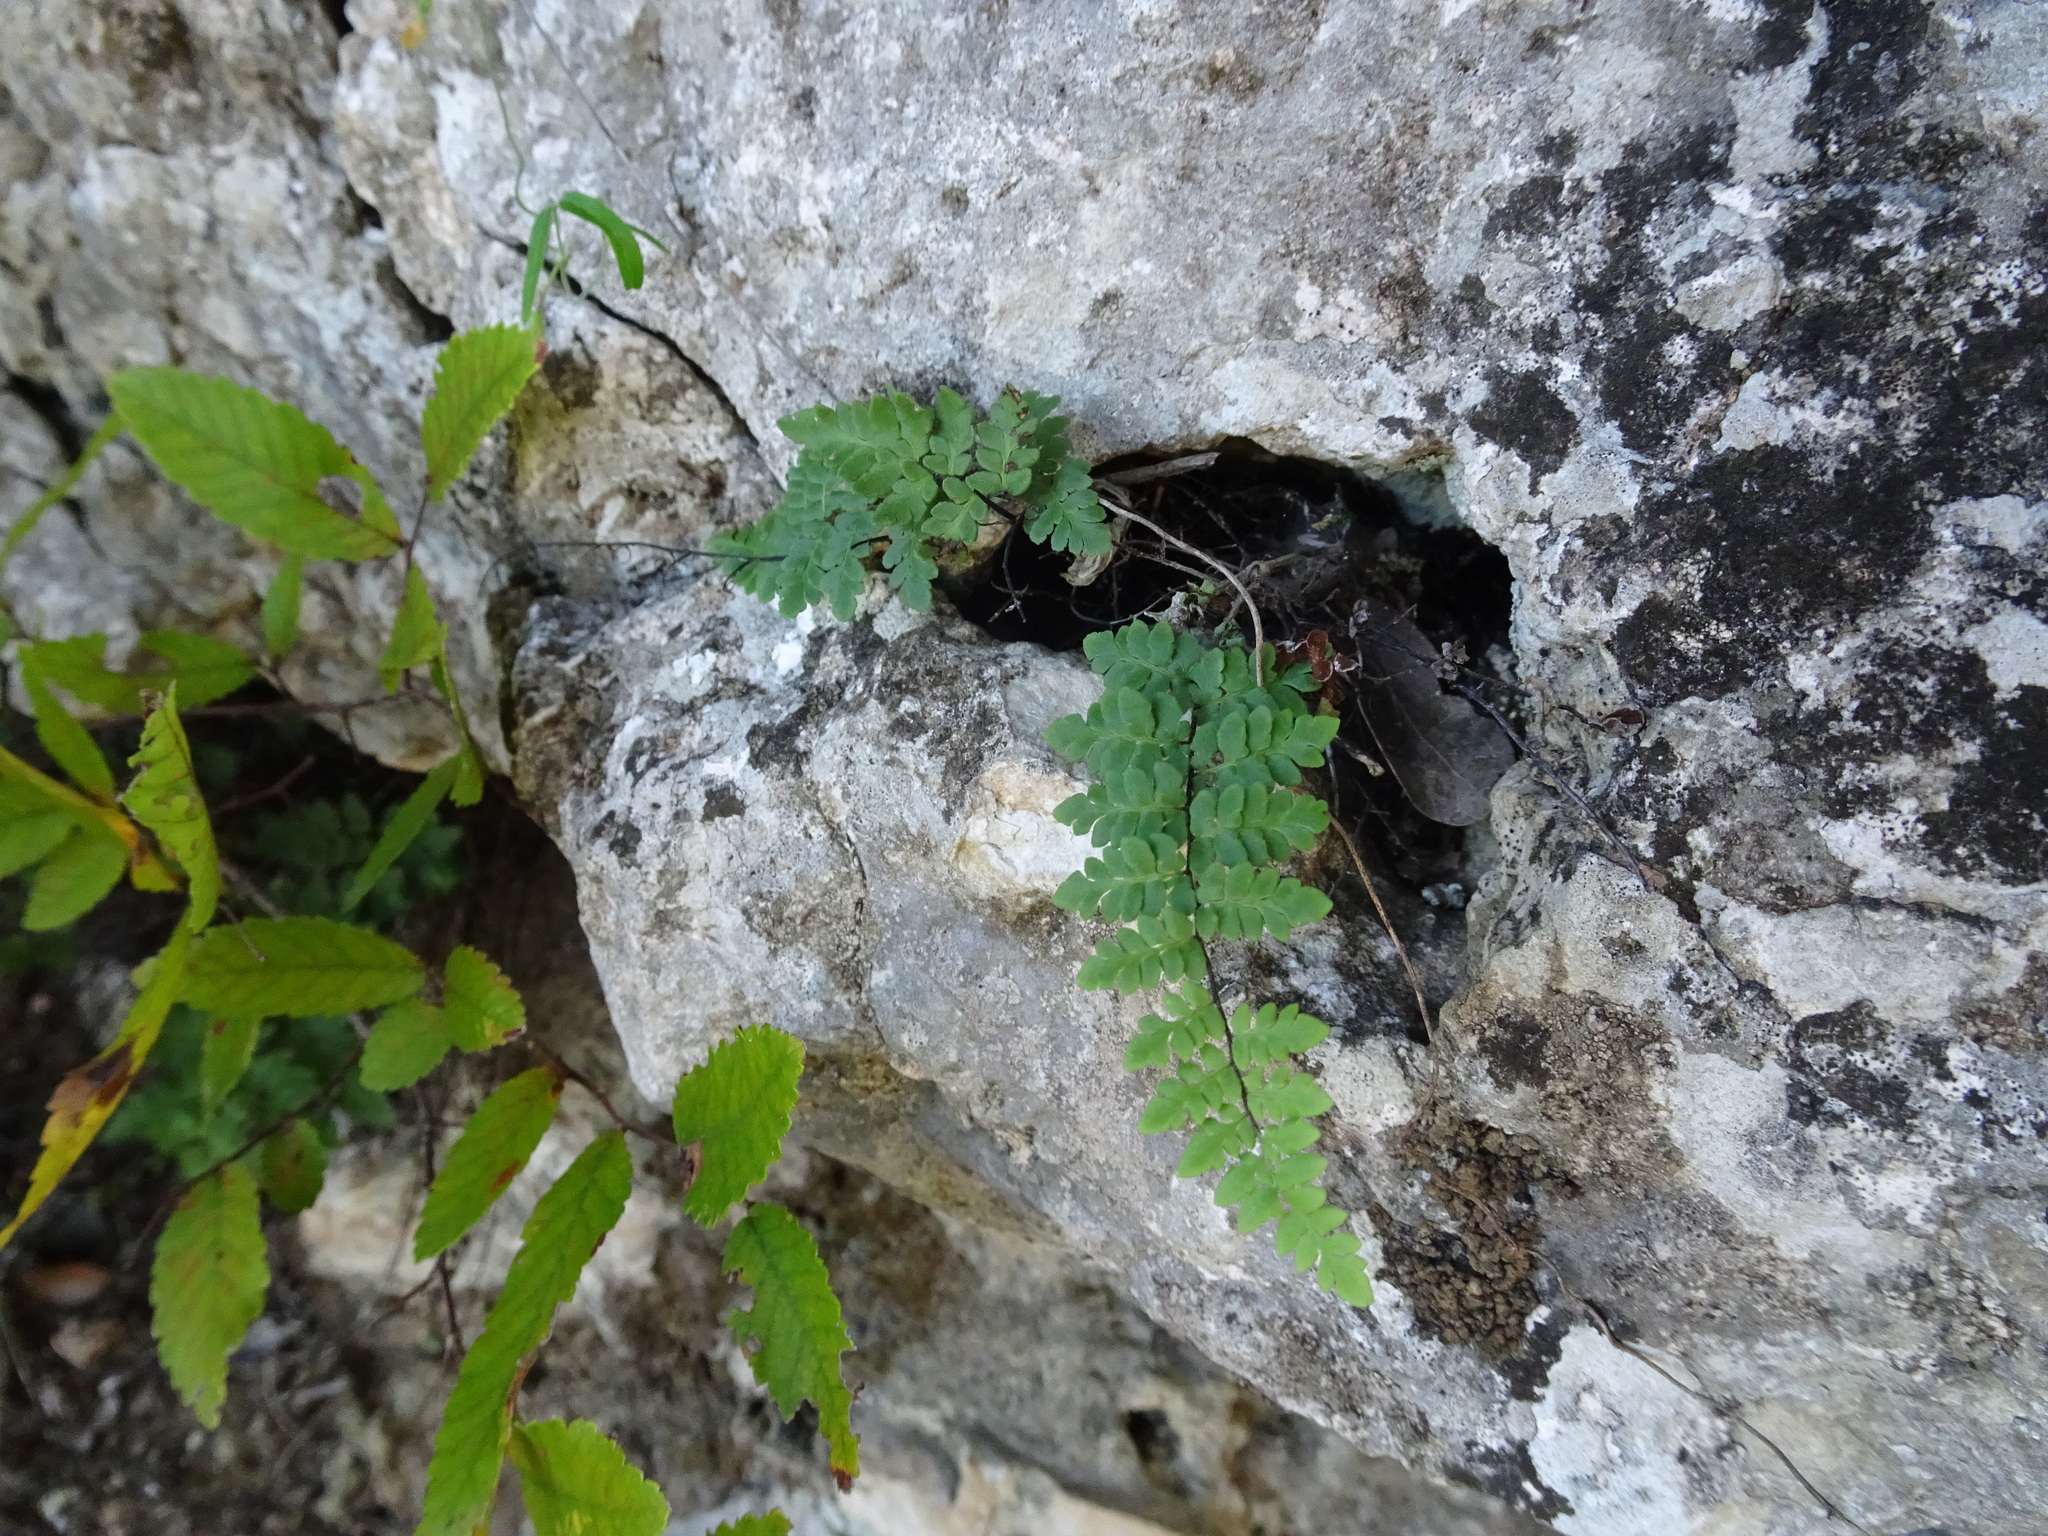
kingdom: Plantae
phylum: Tracheophyta
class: Polypodiopsida
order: Polypodiales
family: Pteridaceae
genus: Myriopteris
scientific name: Myriopteris alabamensis
